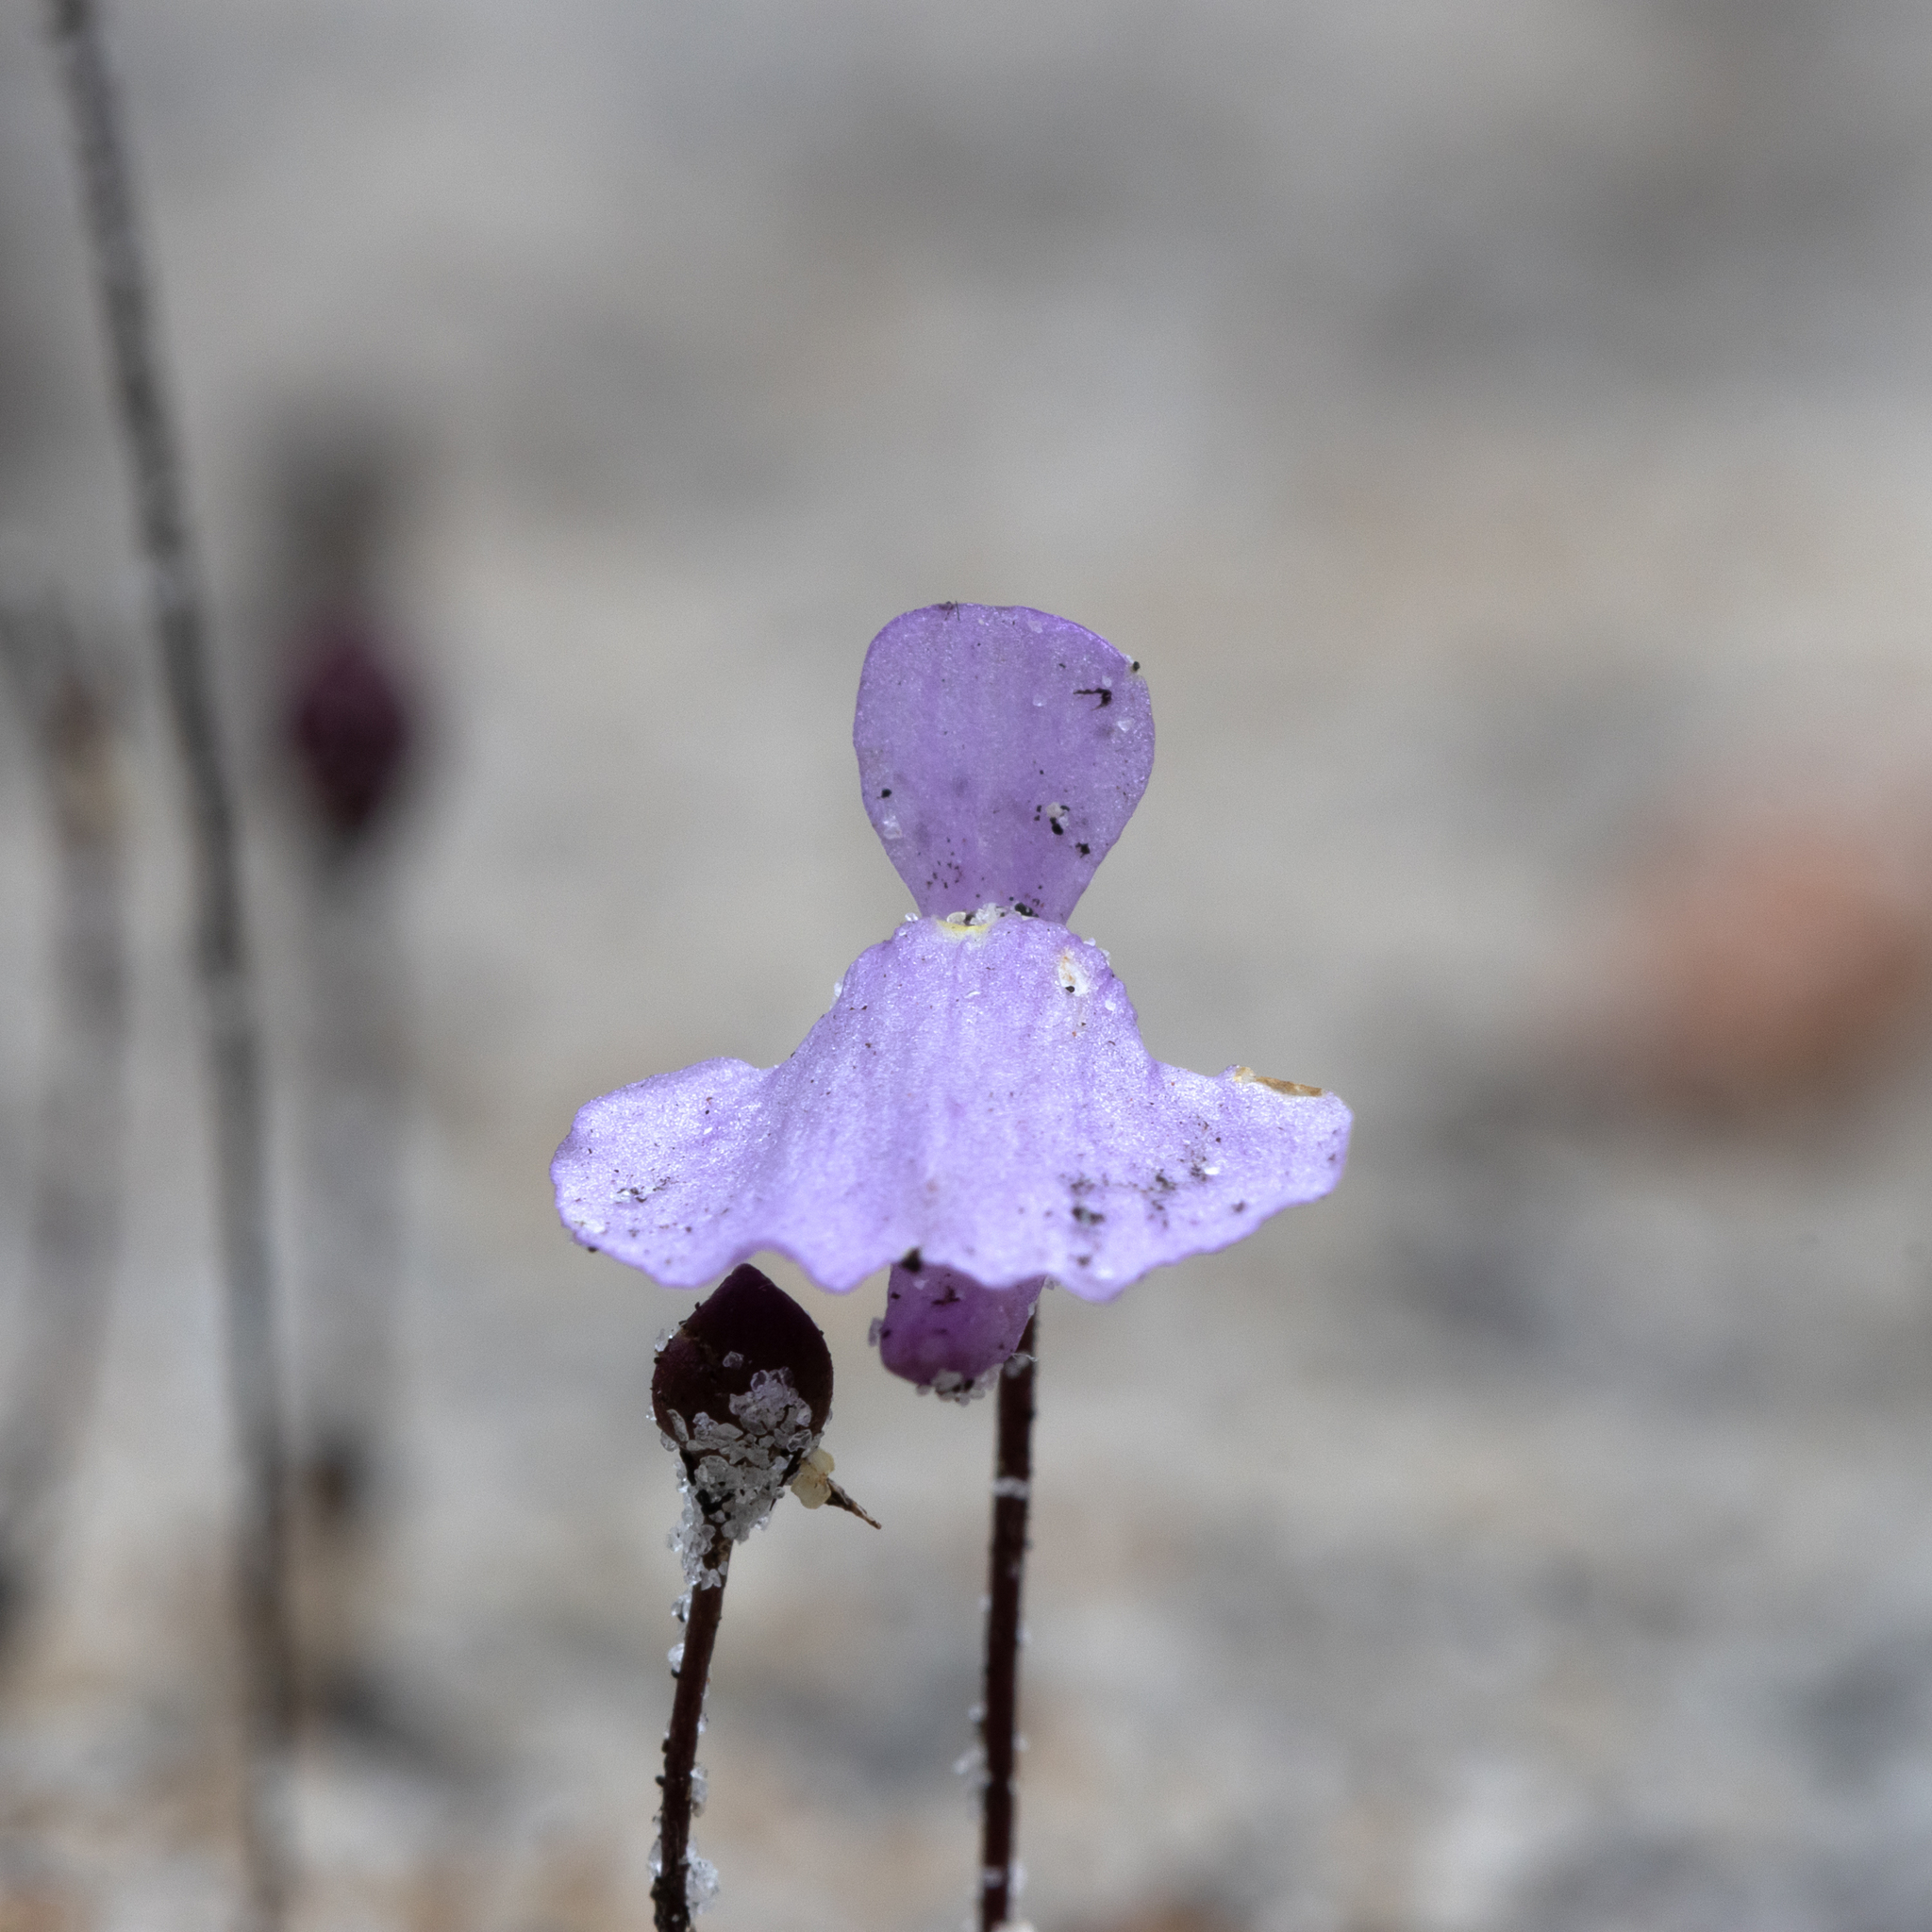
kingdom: Plantae
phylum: Tracheophyta
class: Magnoliopsida
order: Lamiales
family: Lentibulariaceae
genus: Utricularia
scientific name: Utricularia simplex
